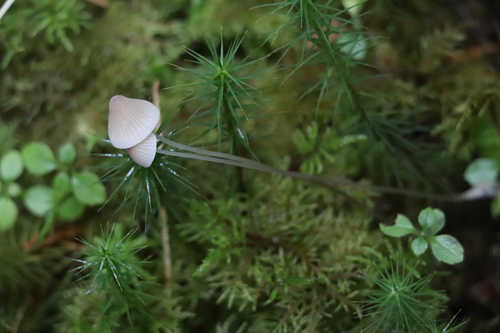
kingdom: Fungi
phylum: Basidiomycota
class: Agaricomycetes
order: Agaricales
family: Mycenaceae
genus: Mycena
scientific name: Mycena mirata
